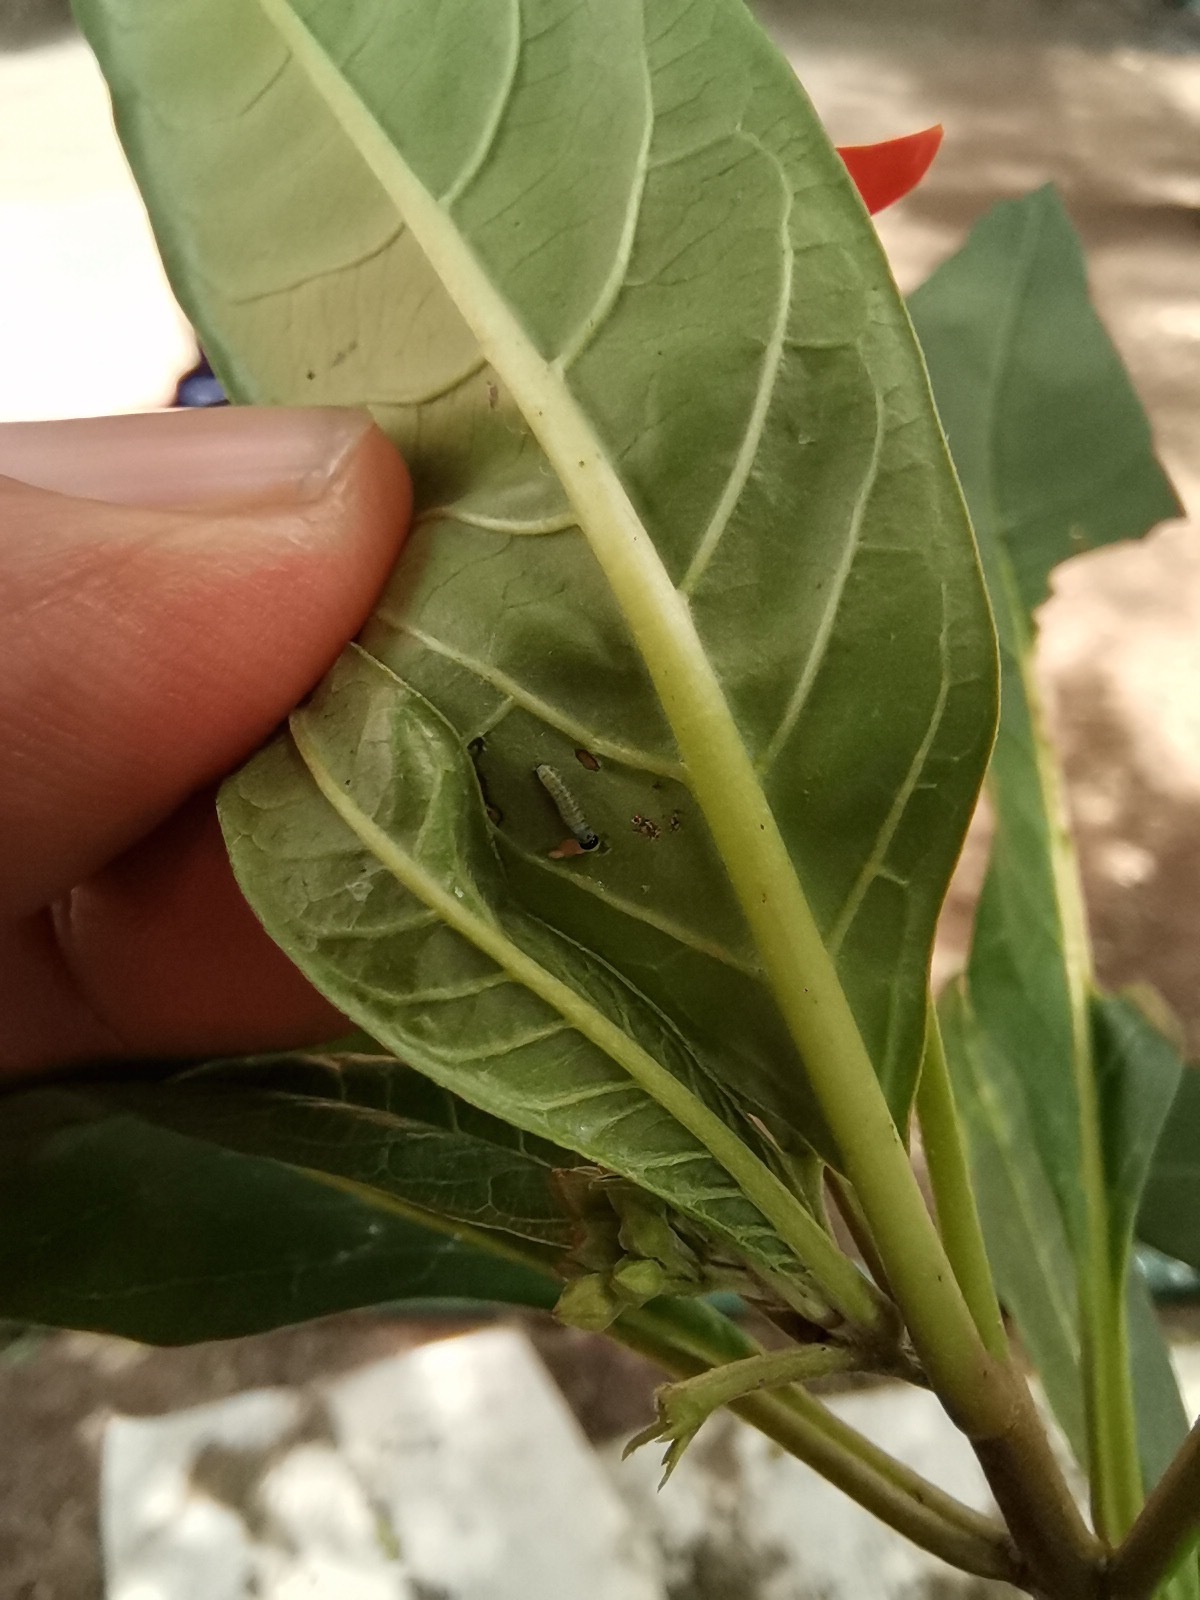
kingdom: Animalia
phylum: Arthropoda
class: Insecta
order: Lepidoptera
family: Nymphalidae
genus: Danaus
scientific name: Danaus plexippus
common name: Monarch
